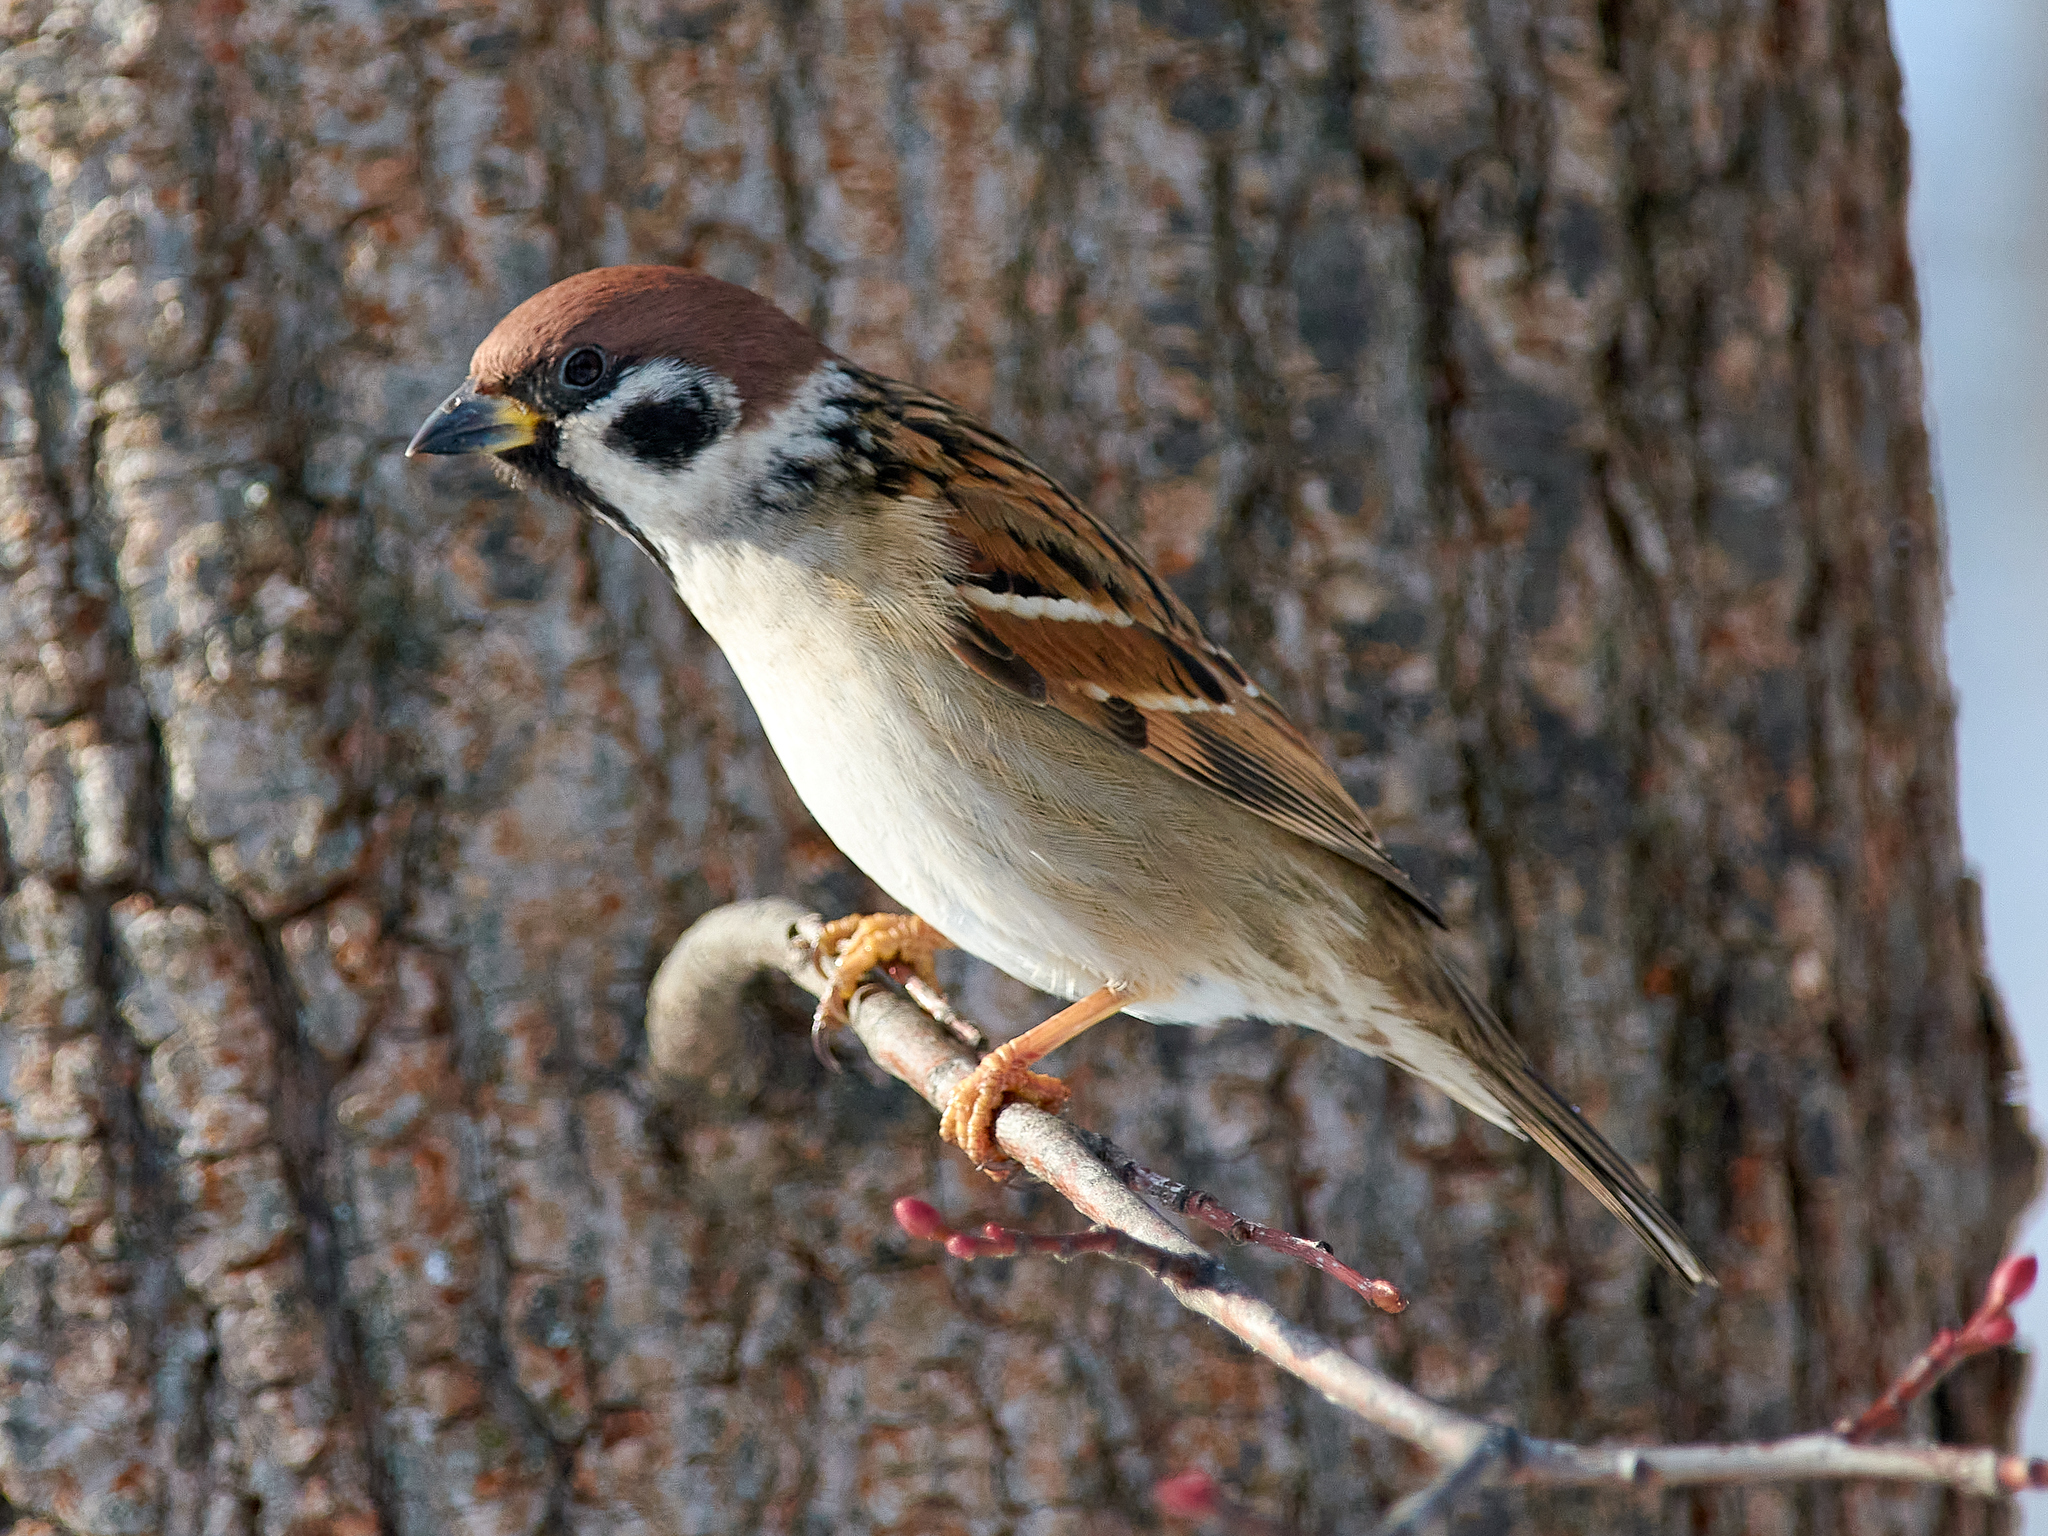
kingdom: Animalia
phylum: Chordata
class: Aves
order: Passeriformes
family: Passeridae
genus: Passer
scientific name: Passer montanus
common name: Eurasian tree sparrow
